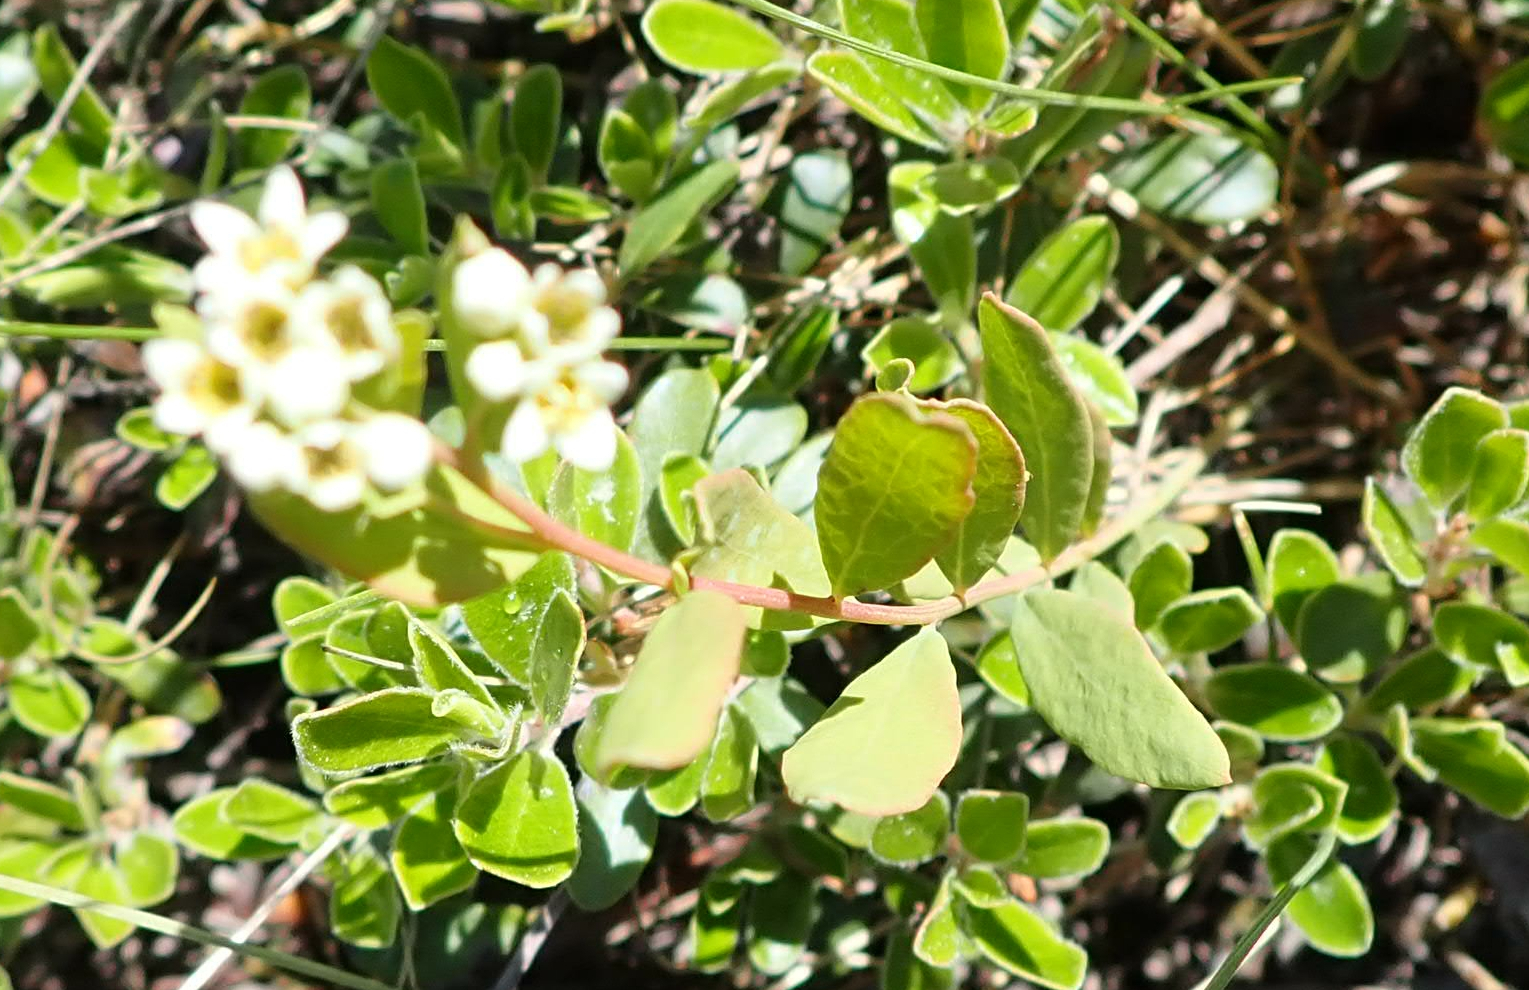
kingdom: Plantae
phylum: Tracheophyta
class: Magnoliopsida
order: Santalales
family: Comandraceae
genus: Comandra
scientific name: Comandra umbellata
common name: Bastard toadflax
